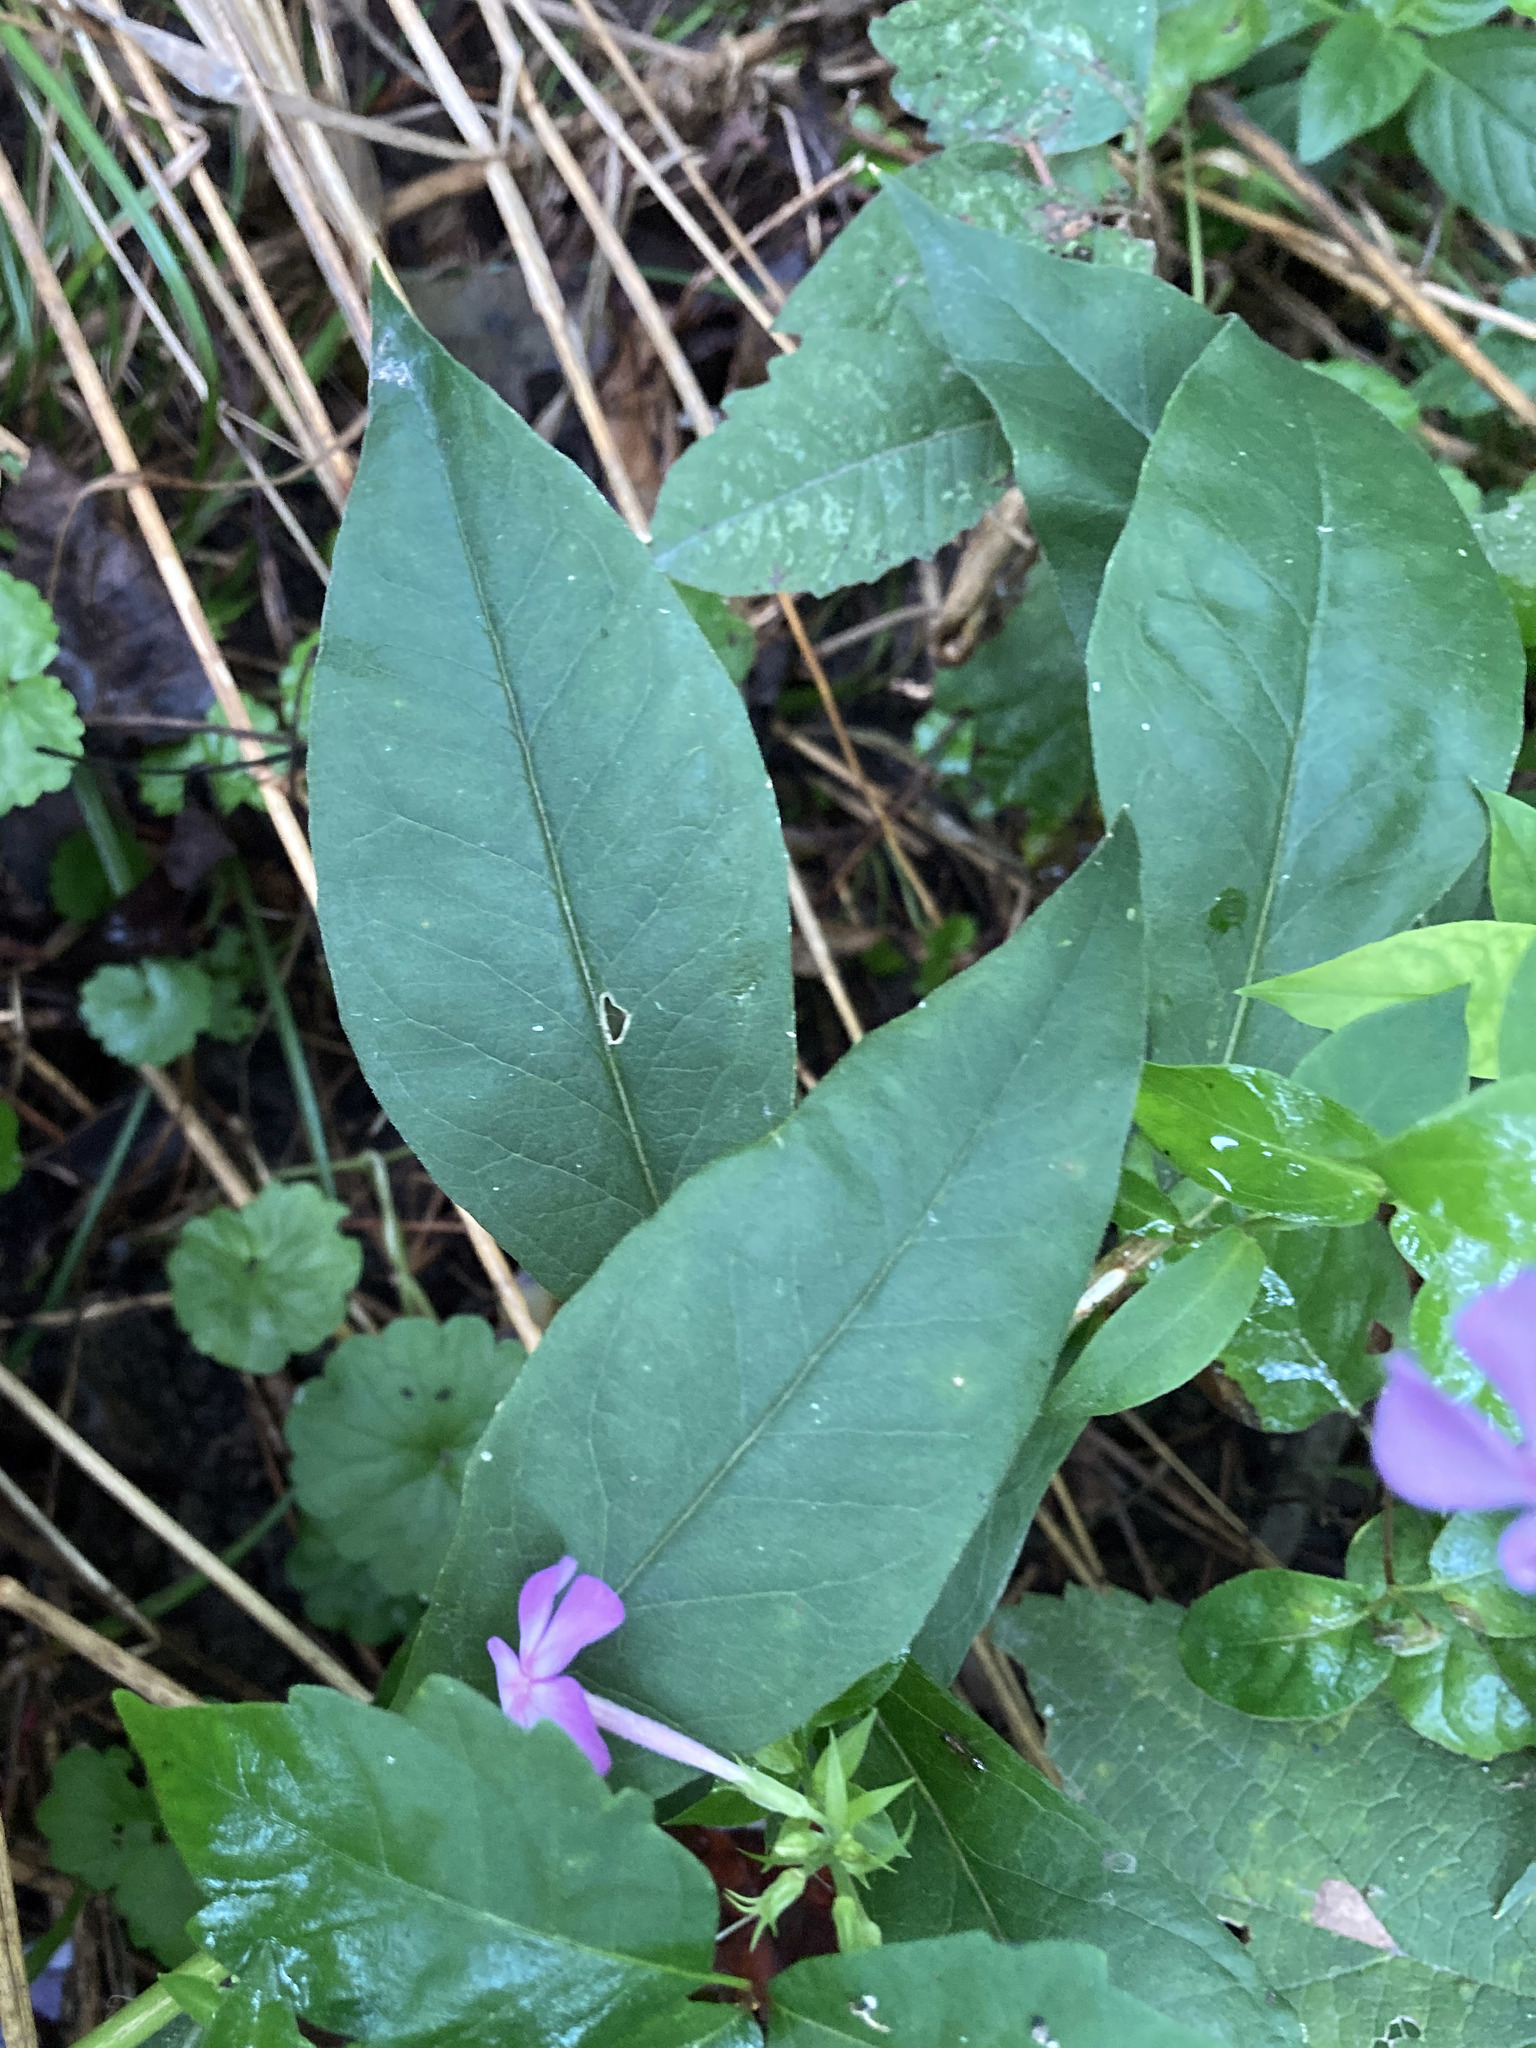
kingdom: Plantae
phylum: Tracheophyta
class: Magnoliopsida
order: Ericales
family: Polemoniaceae
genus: Phlox
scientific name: Phlox paniculata
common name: Fall phlox
